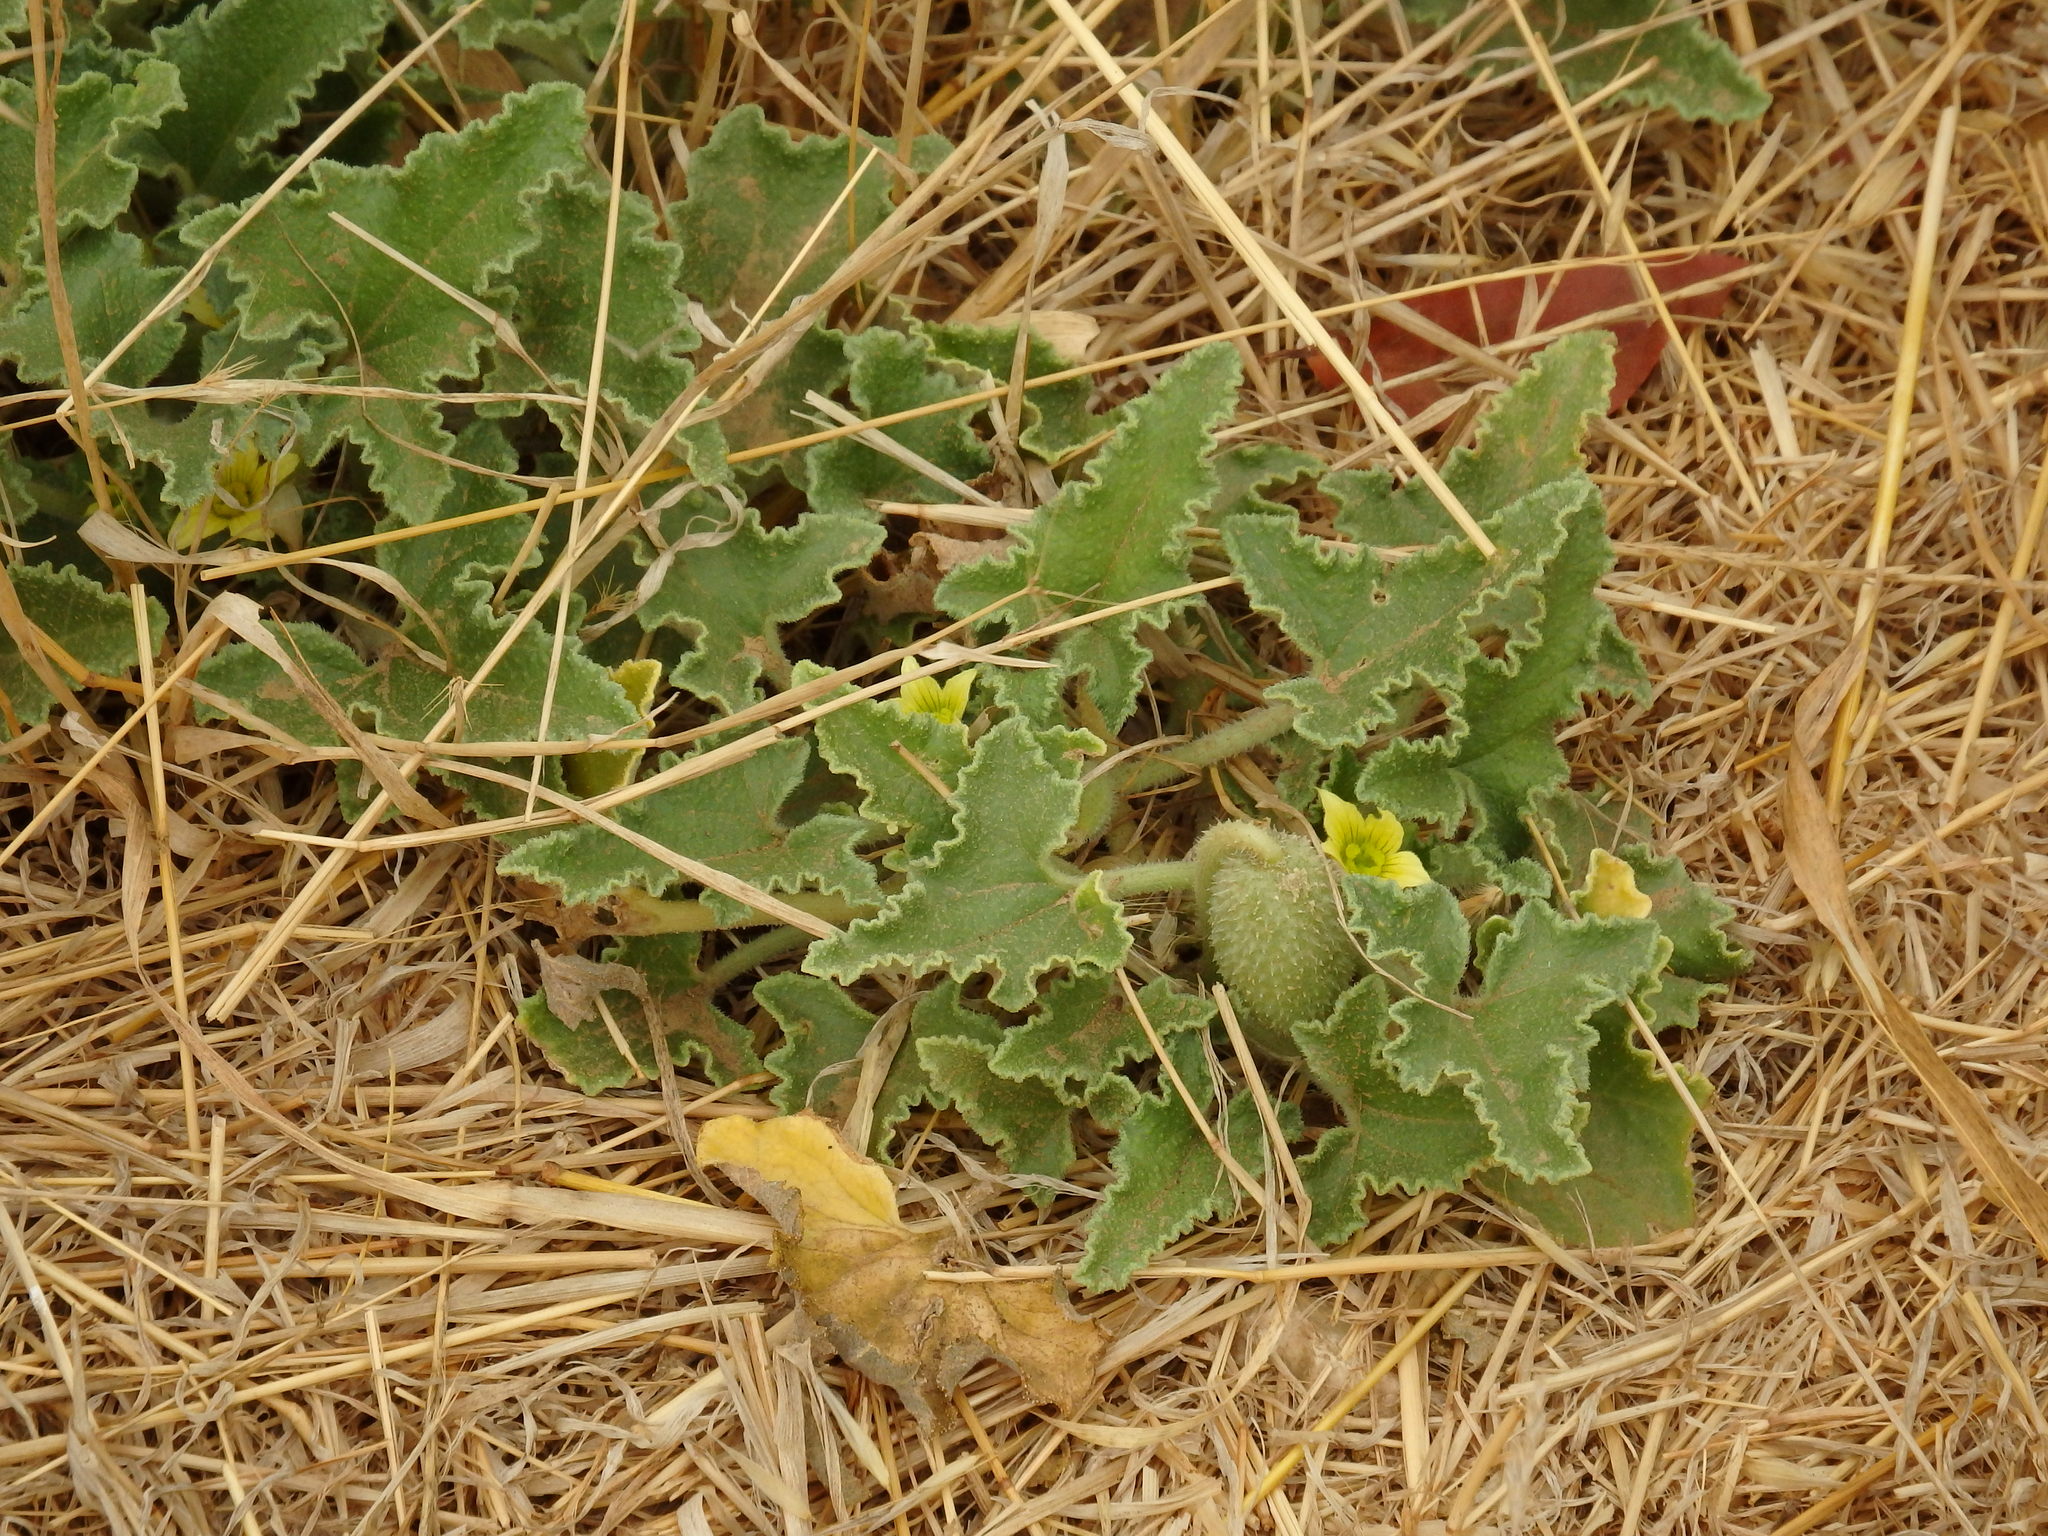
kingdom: Plantae
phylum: Tracheophyta
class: Magnoliopsida
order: Cucurbitales
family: Cucurbitaceae
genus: Ecballium
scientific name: Ecballium elaterium
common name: Squirting cucumber
